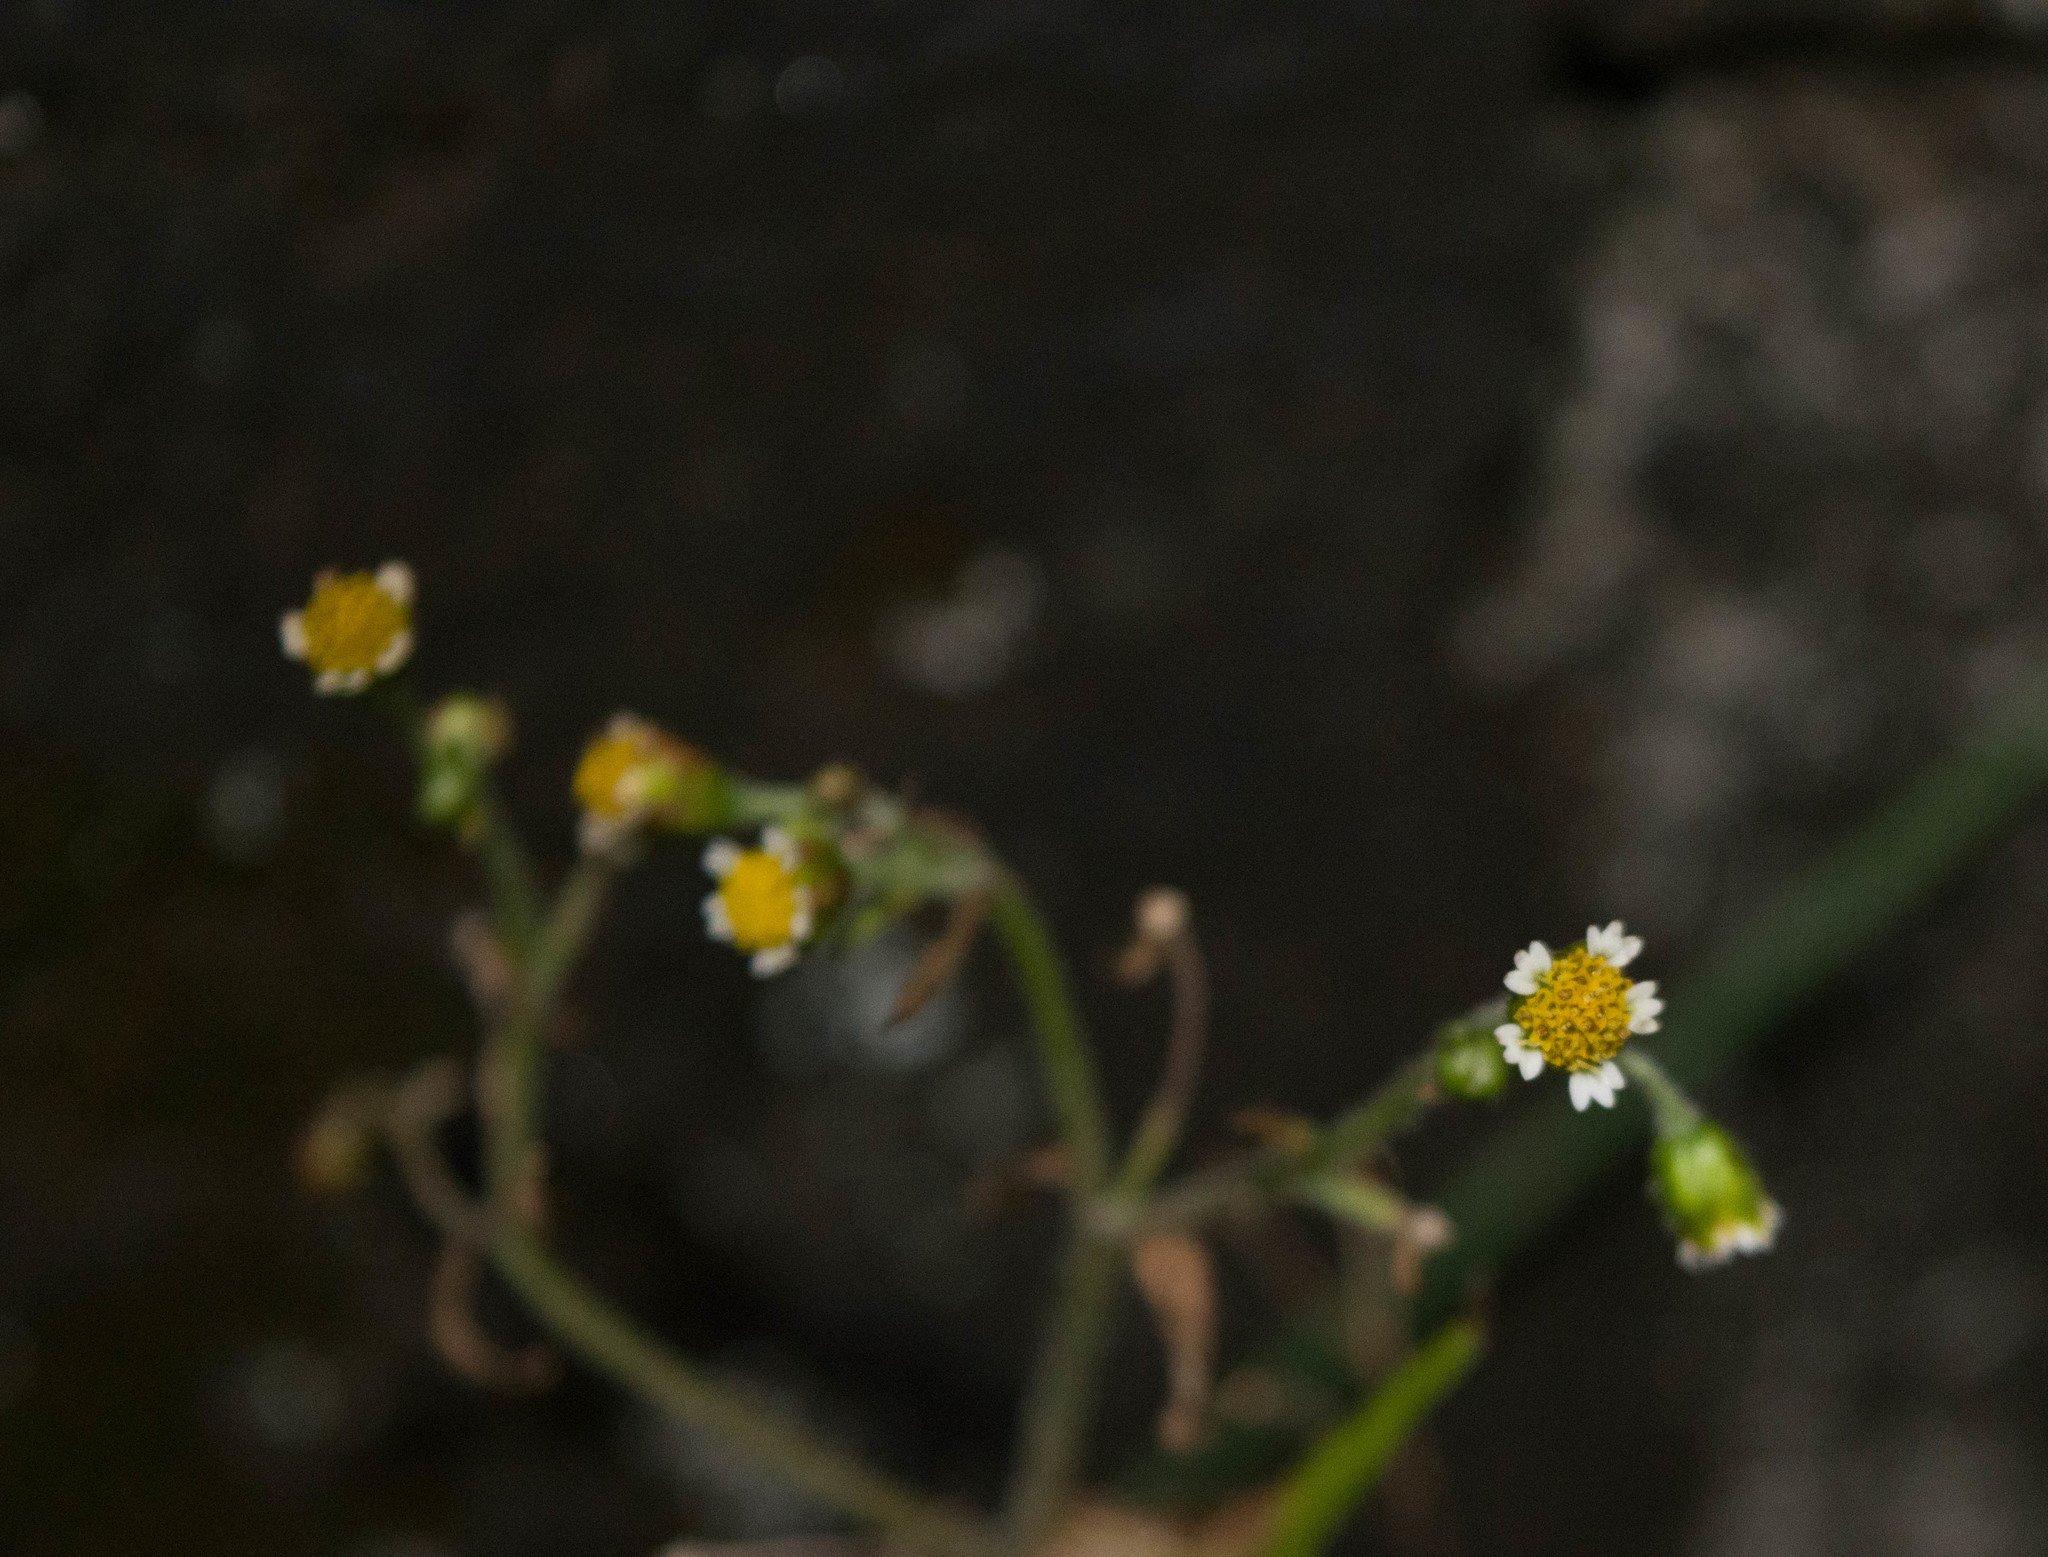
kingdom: Plantae
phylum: Tracheophyta
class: Magnoliopsida
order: Asterales
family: Asteraceae
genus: Galinsoga
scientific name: Galinsoga parviflora
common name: Gallant soldier
